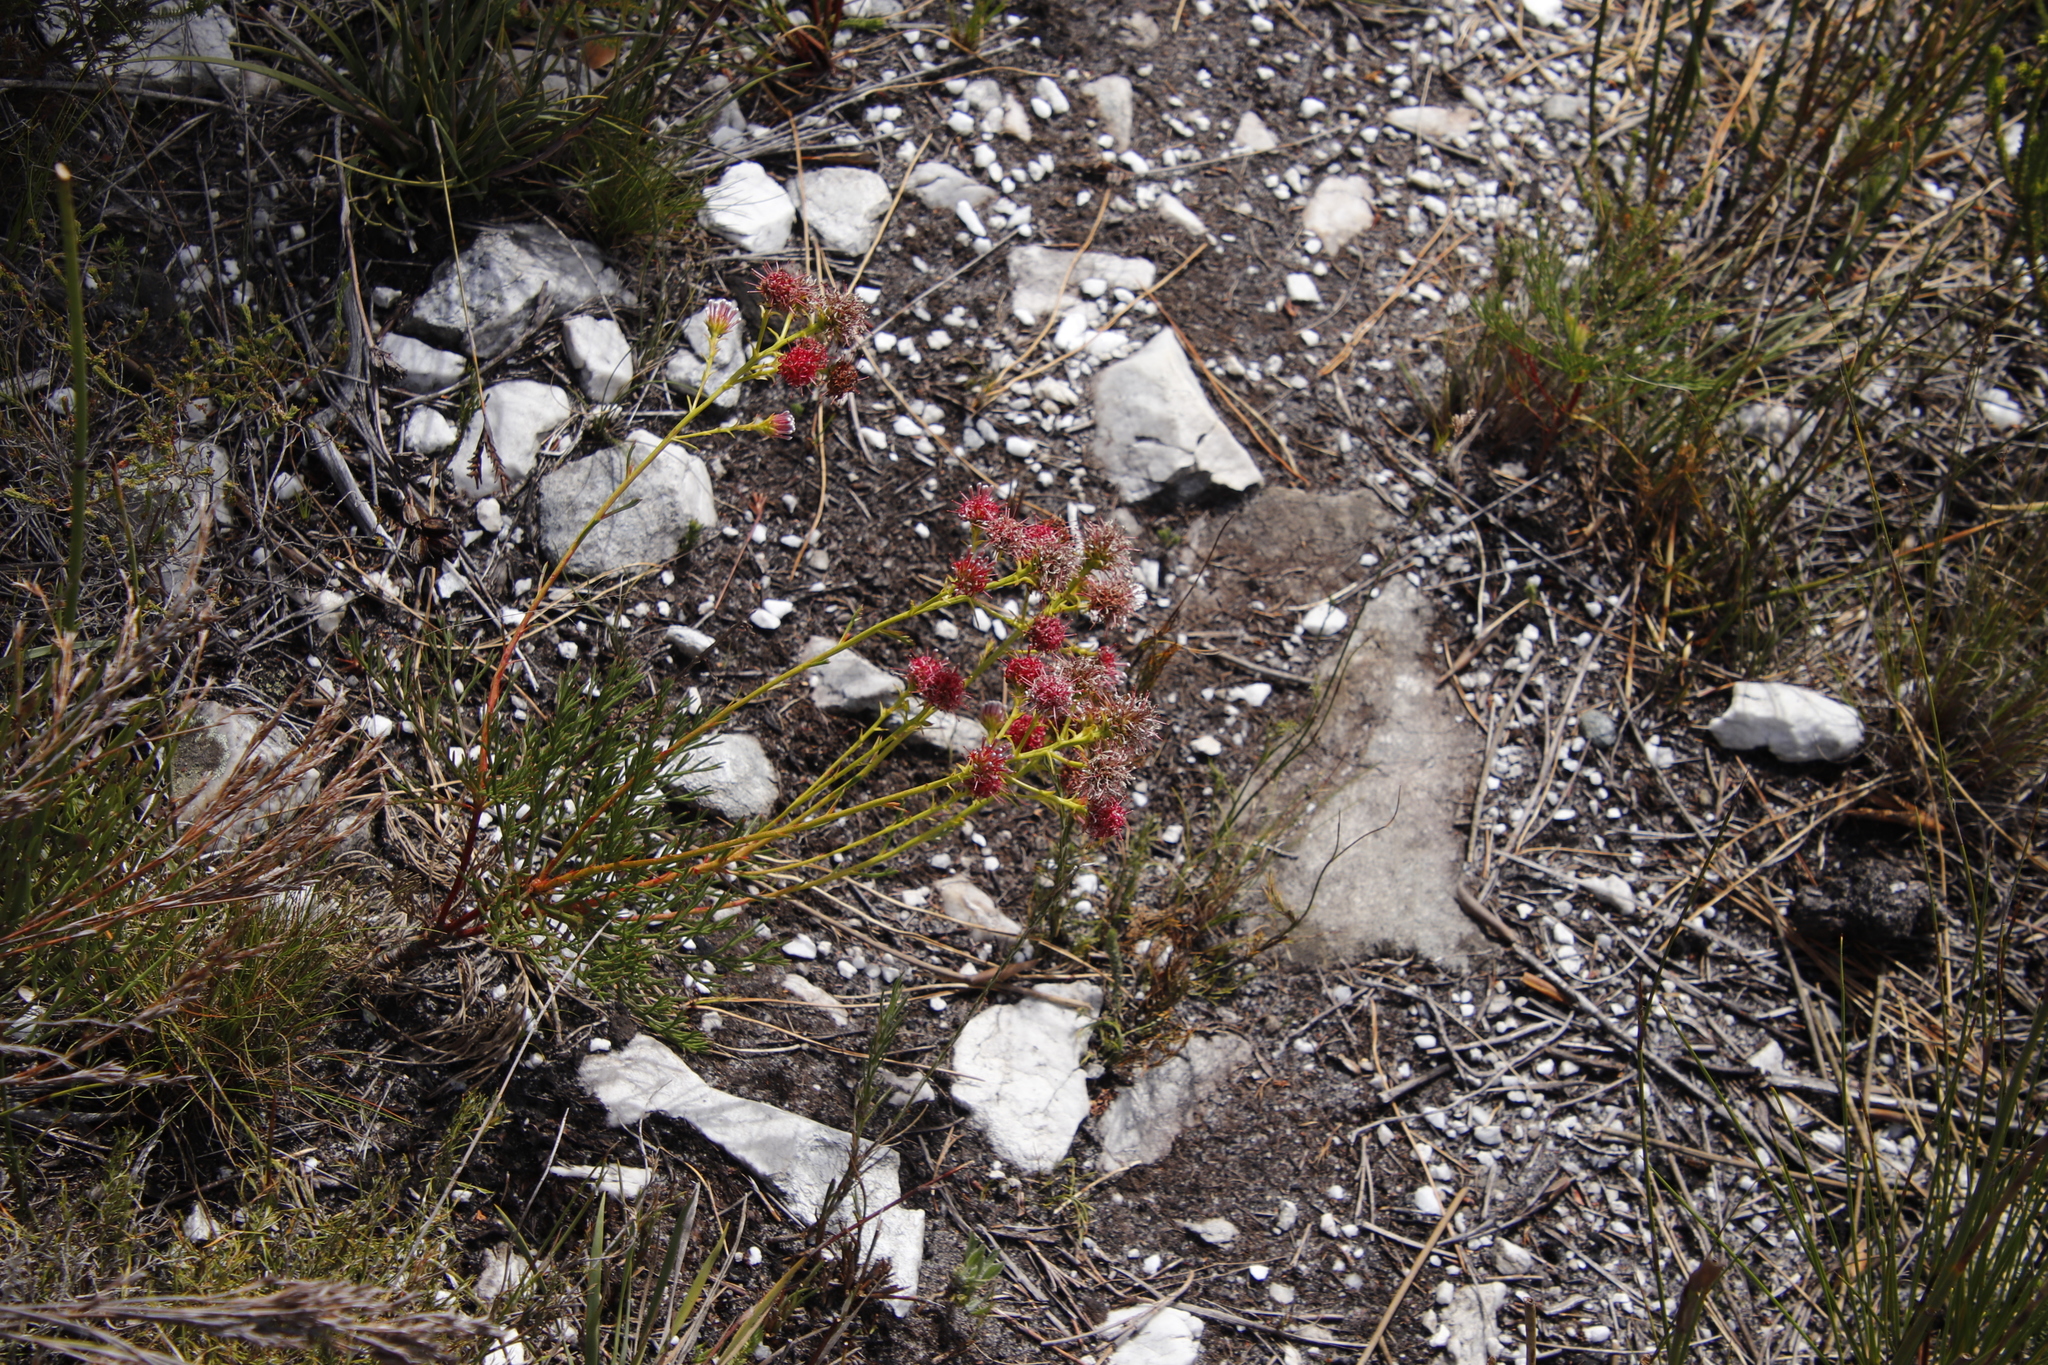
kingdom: Plantae
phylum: Tracheophyta
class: Magnoliopsida
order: Proteales
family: Proteaceae
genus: Serruria
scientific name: Serruria elongata
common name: Long-stalk spiderhead
